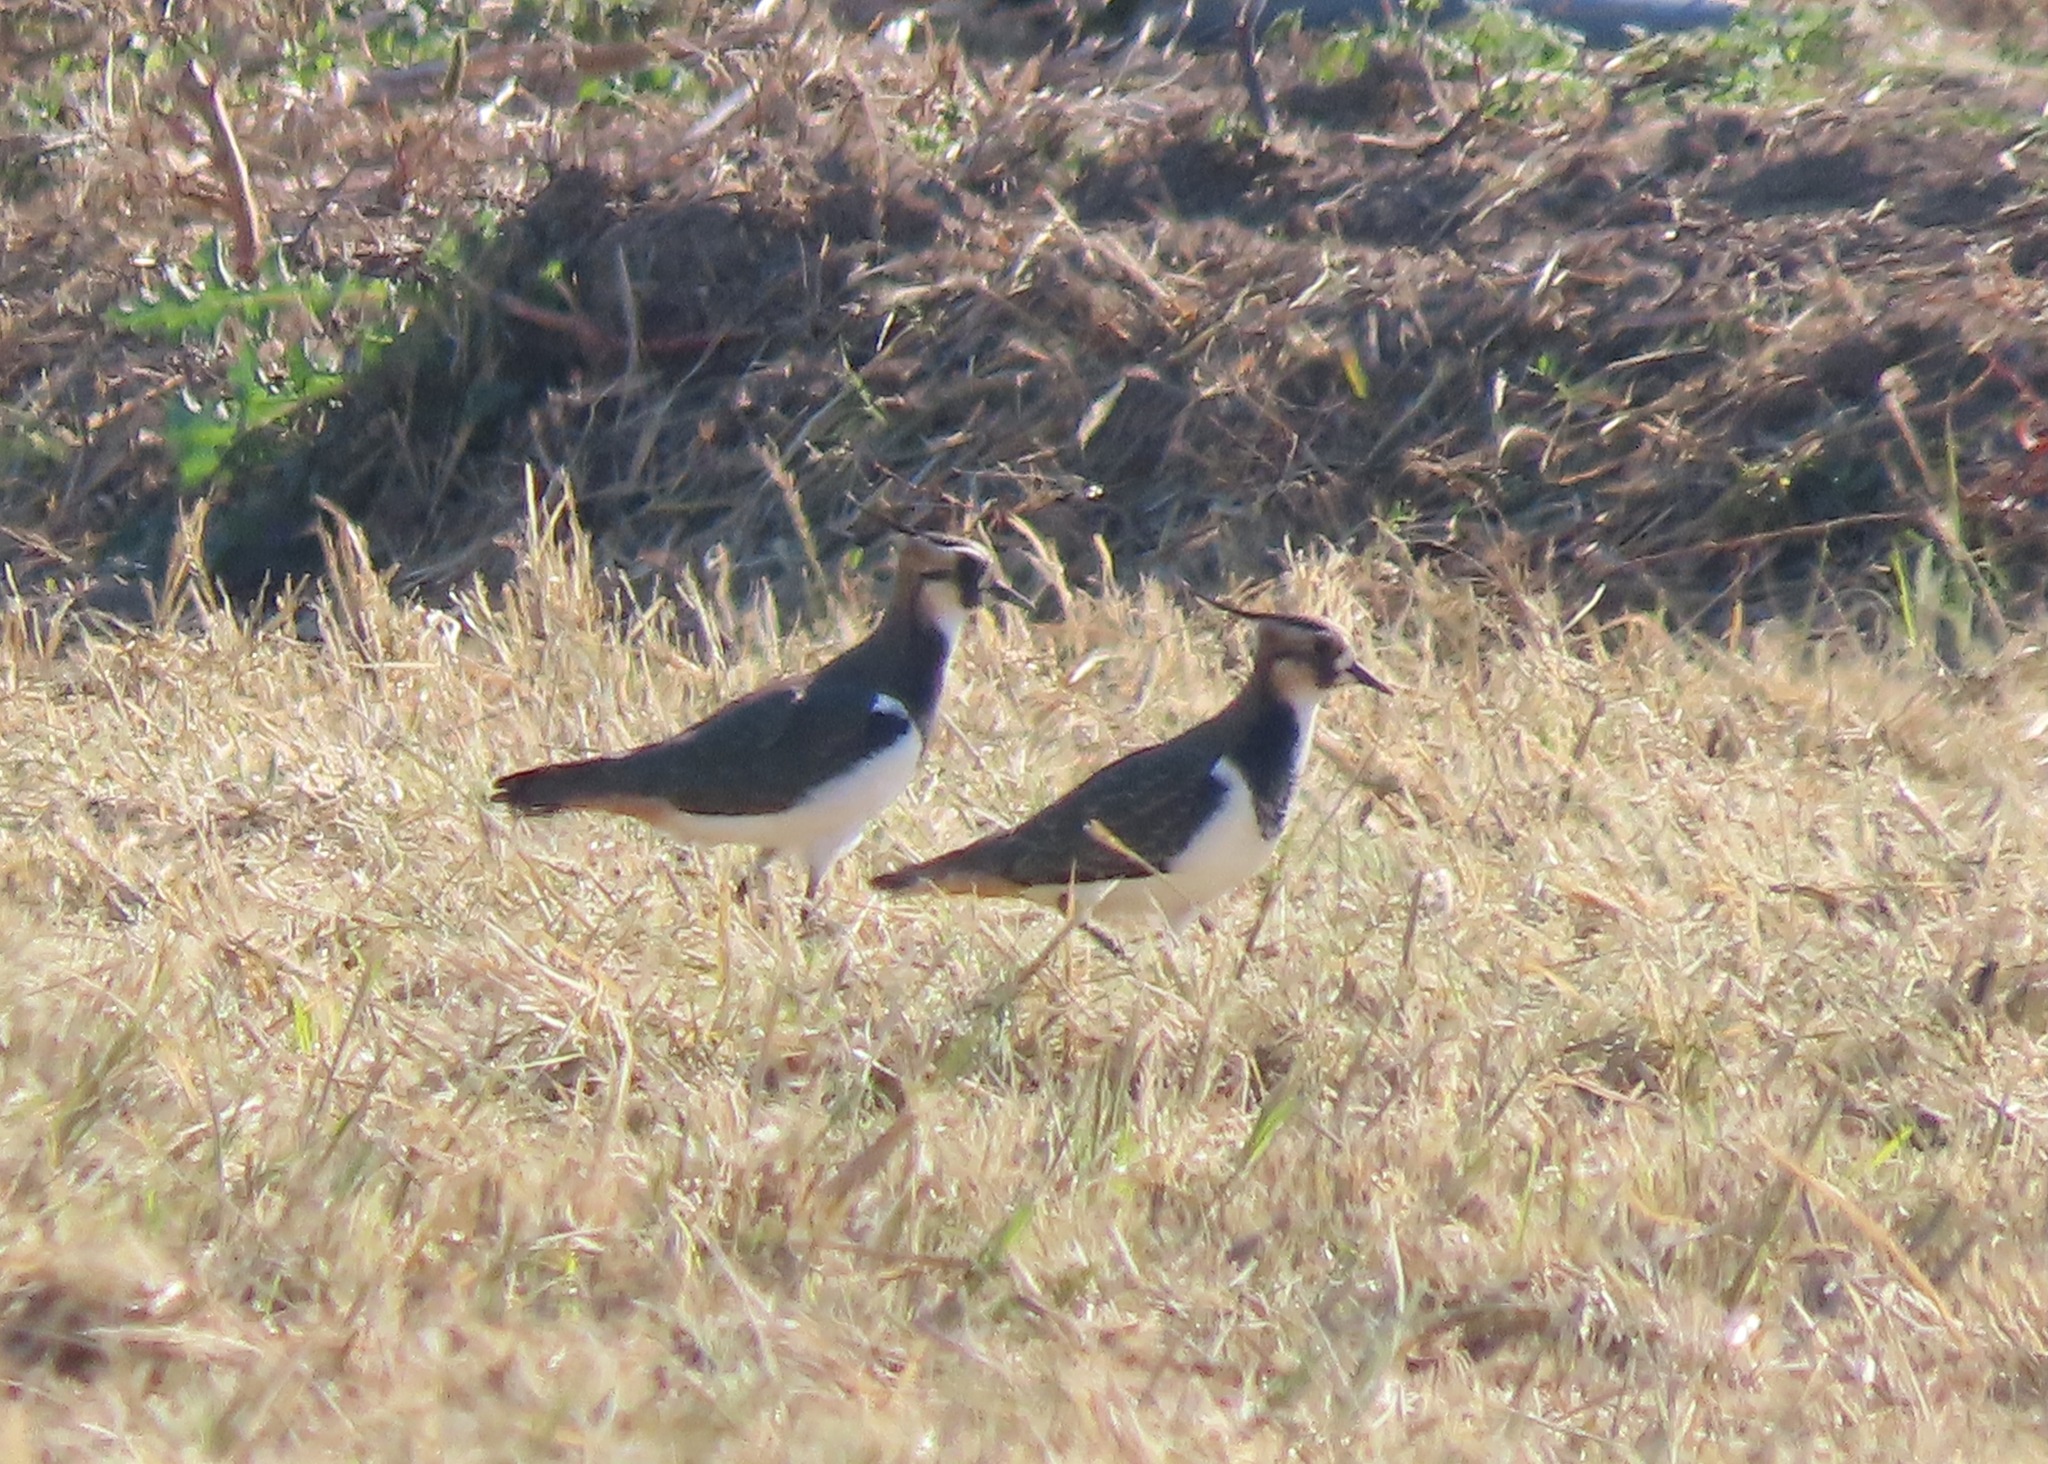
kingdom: Animalia
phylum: Chordata
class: Aves
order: Charadriiformes
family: Charadriidae
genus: Vanellus
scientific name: Vanellus vanellus
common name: Northern lapwing
